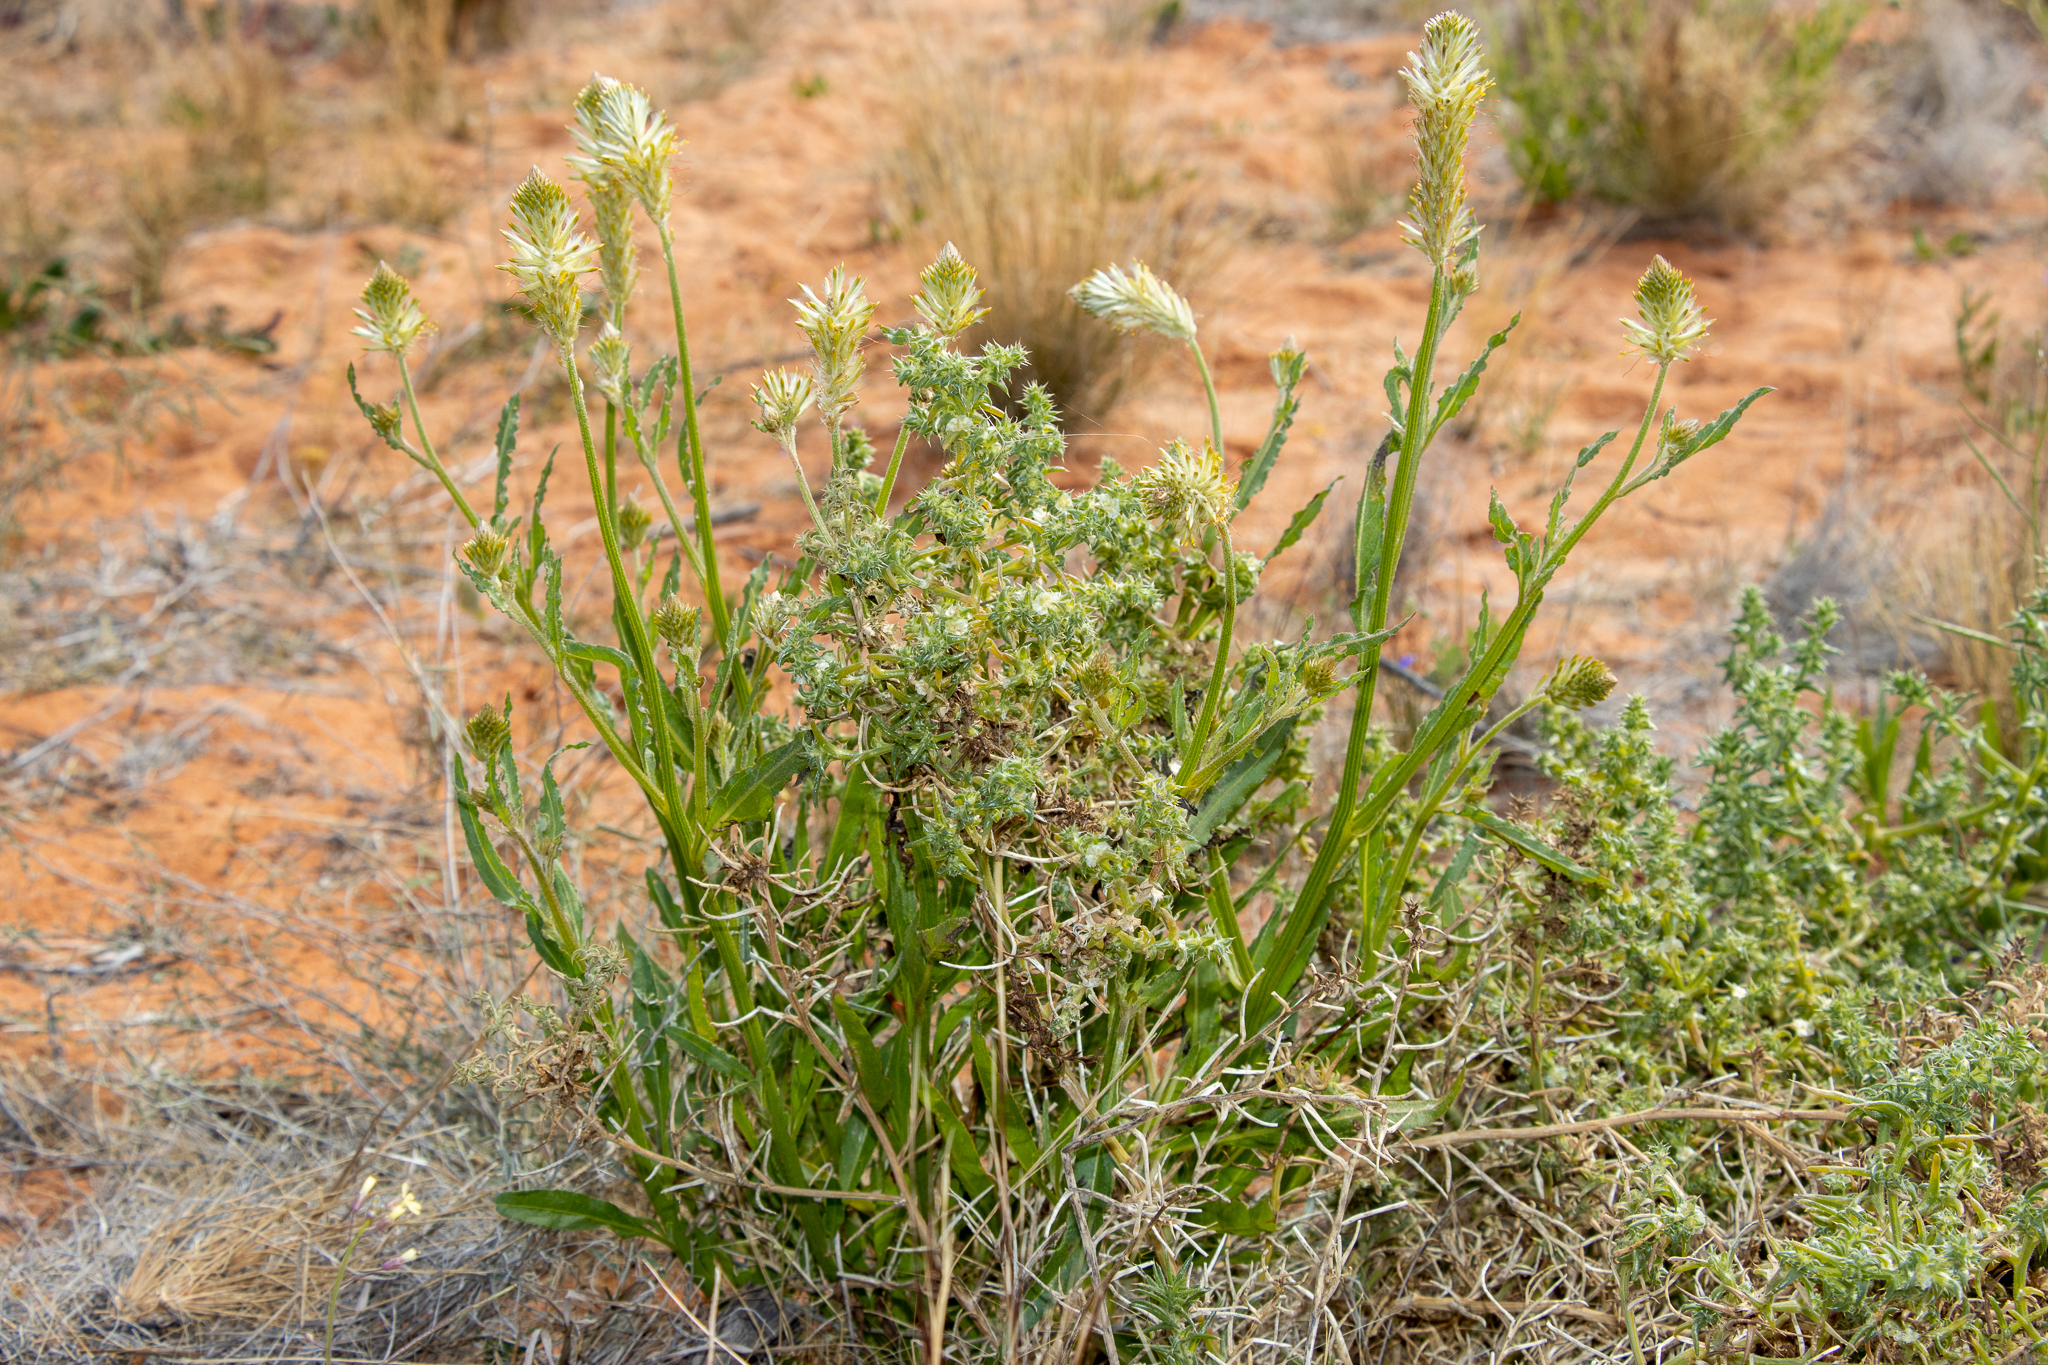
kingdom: Plantae
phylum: Tracheophyta
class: Magnoliopsida
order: Caryophyllales
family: Amaranthaceae
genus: Ptilotus
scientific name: Ptilotus polystachyus
